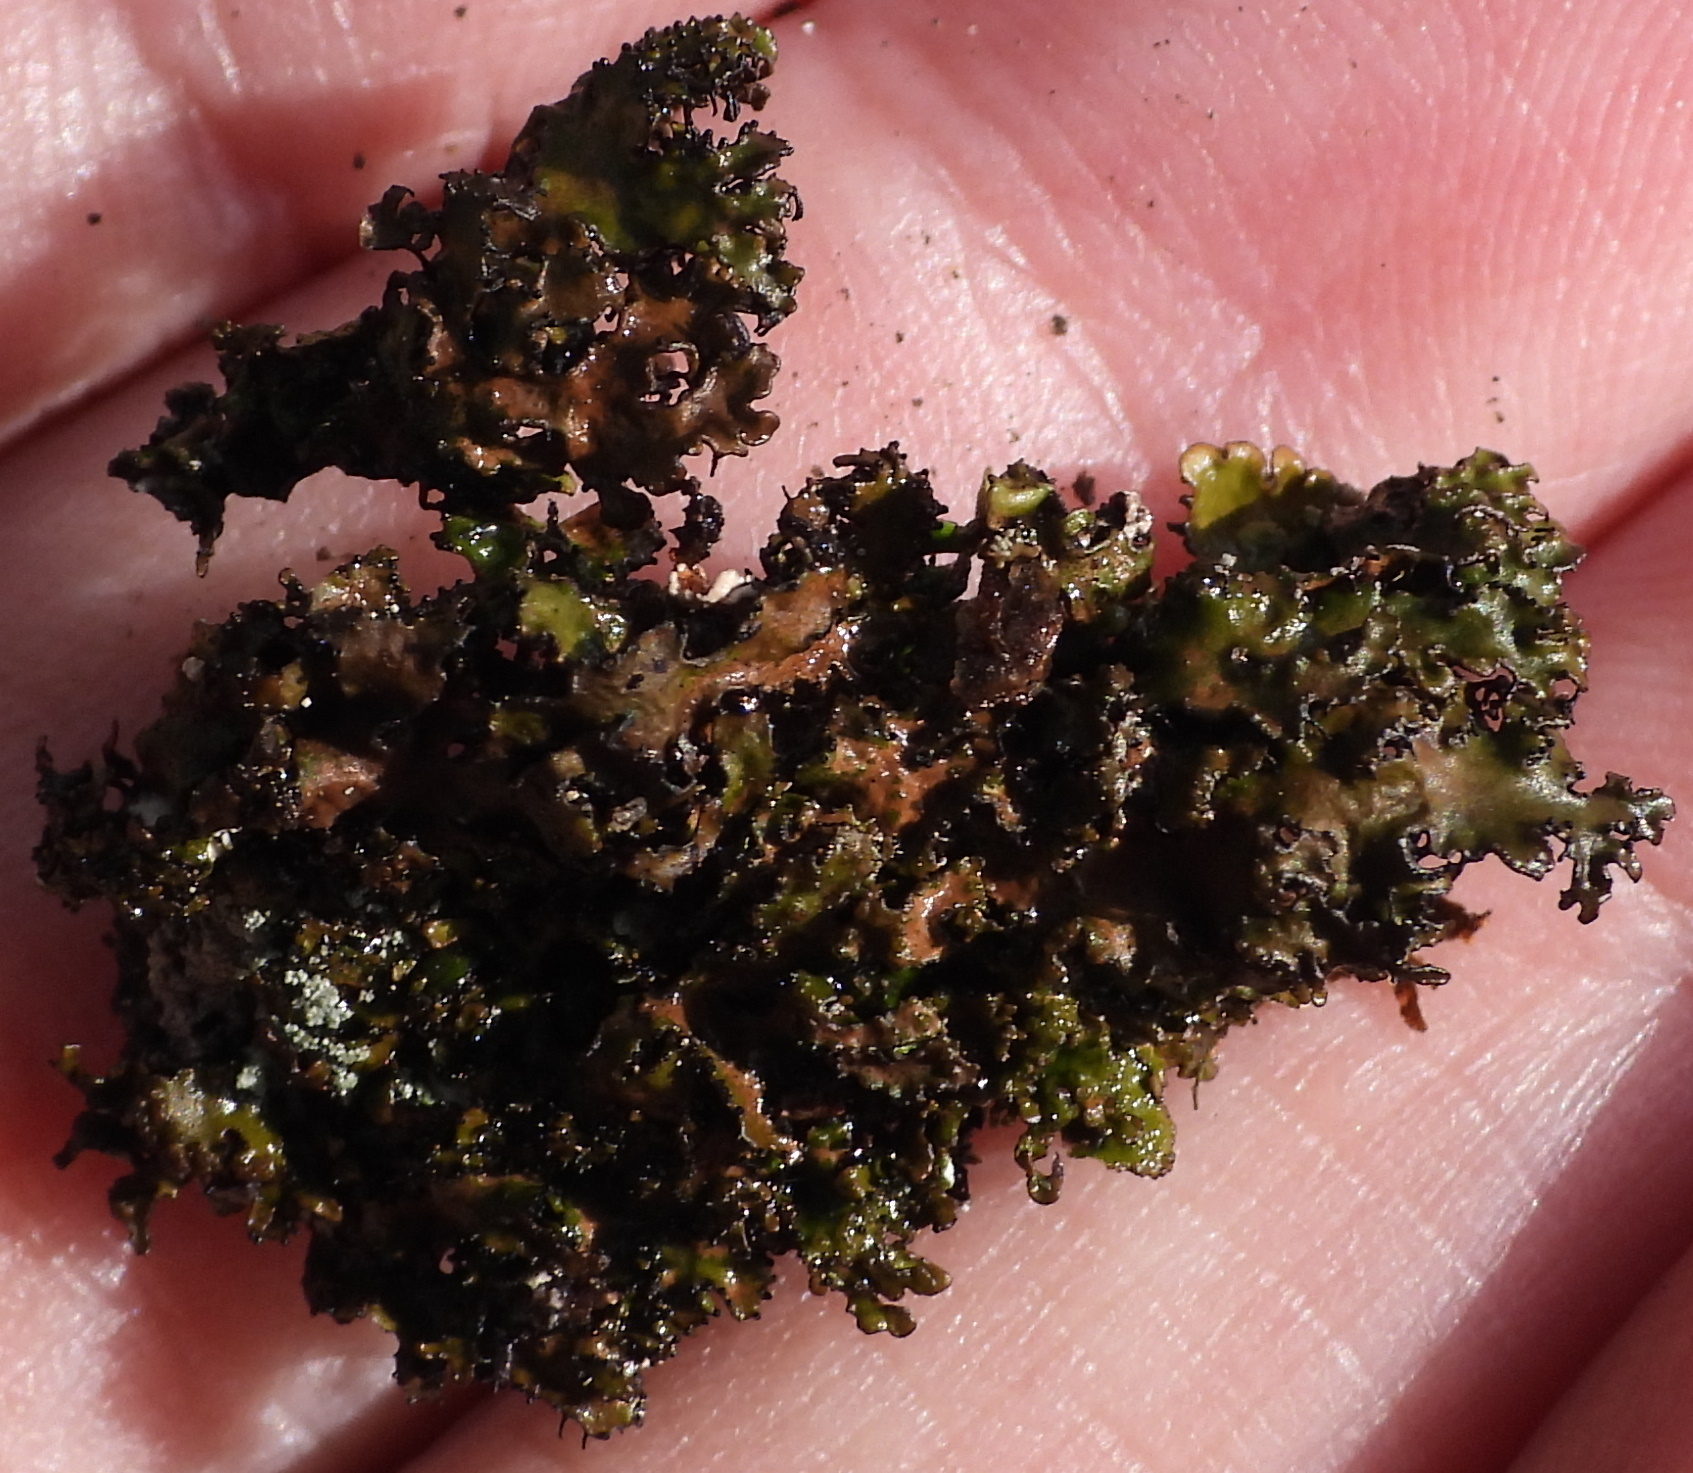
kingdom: Fungi
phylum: Ascomycota
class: Lecanoromycetes
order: Lecanorales
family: Parmeliaceae
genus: Melanelia
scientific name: Melanelia hepatizon
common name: Rimmed camouflage lichen
